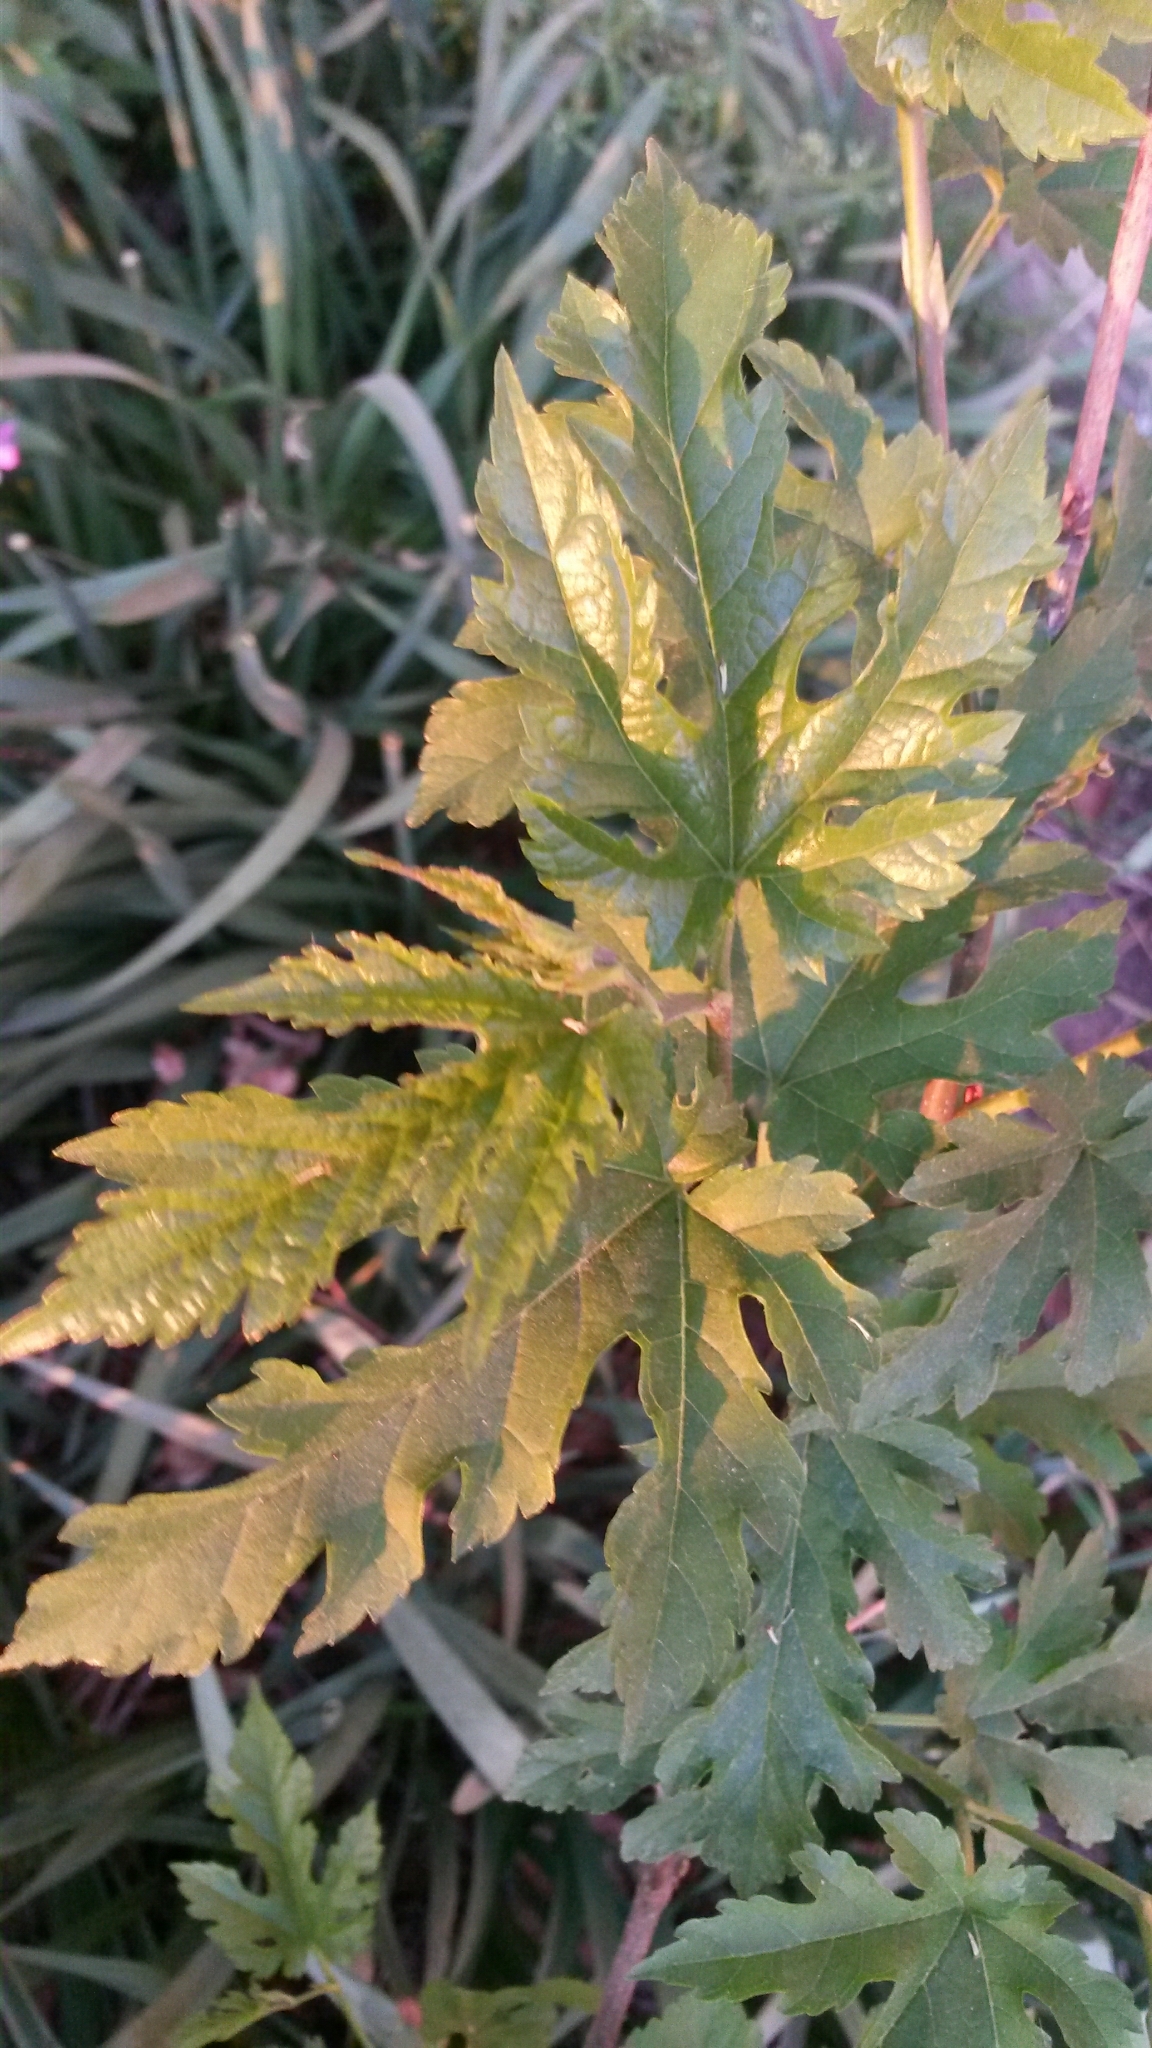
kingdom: Plantae
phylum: Tracheophyta
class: Magnoliopsida
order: Vitales
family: Vitaceae
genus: Ampelopsis
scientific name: Ampelopsis glandulosa
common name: Amur peppervine
